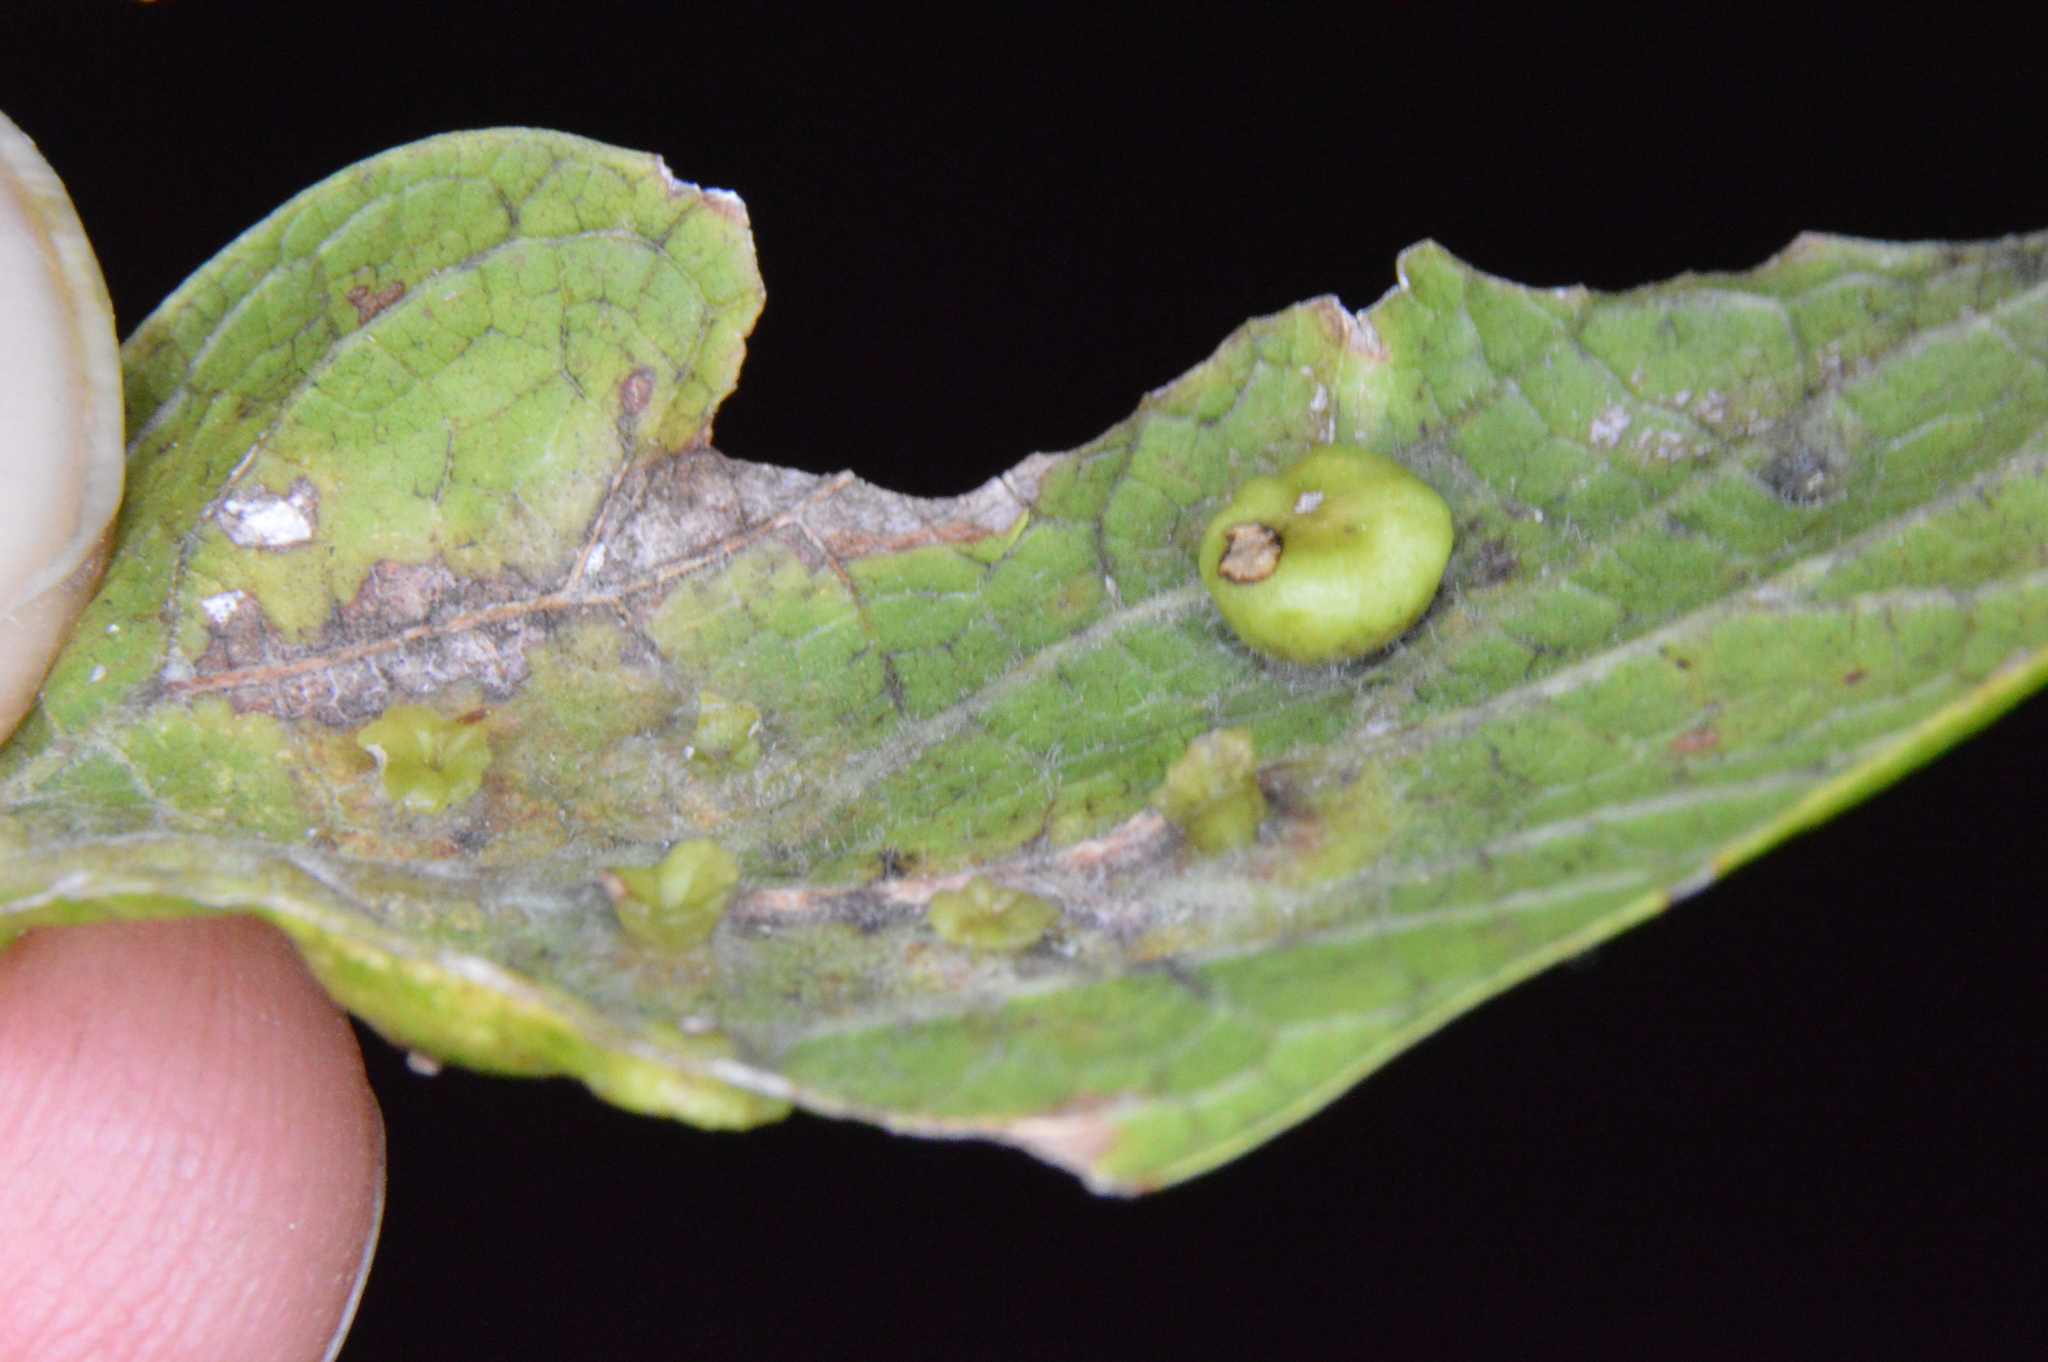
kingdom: Animalia
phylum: Arthropoda
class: Insecta
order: Hemiptera
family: Aphalaridae
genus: Pachypsylla
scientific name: Pachypsylla celtidisasterisca
